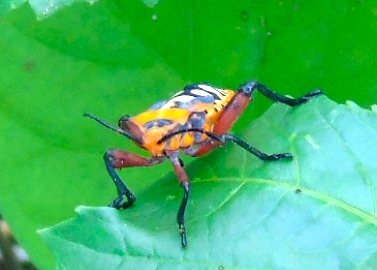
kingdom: Animalia
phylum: Arthropoda
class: Insecta
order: Hemiptera
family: Coreidae
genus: Sagotylus
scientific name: Sagotylus confluens
